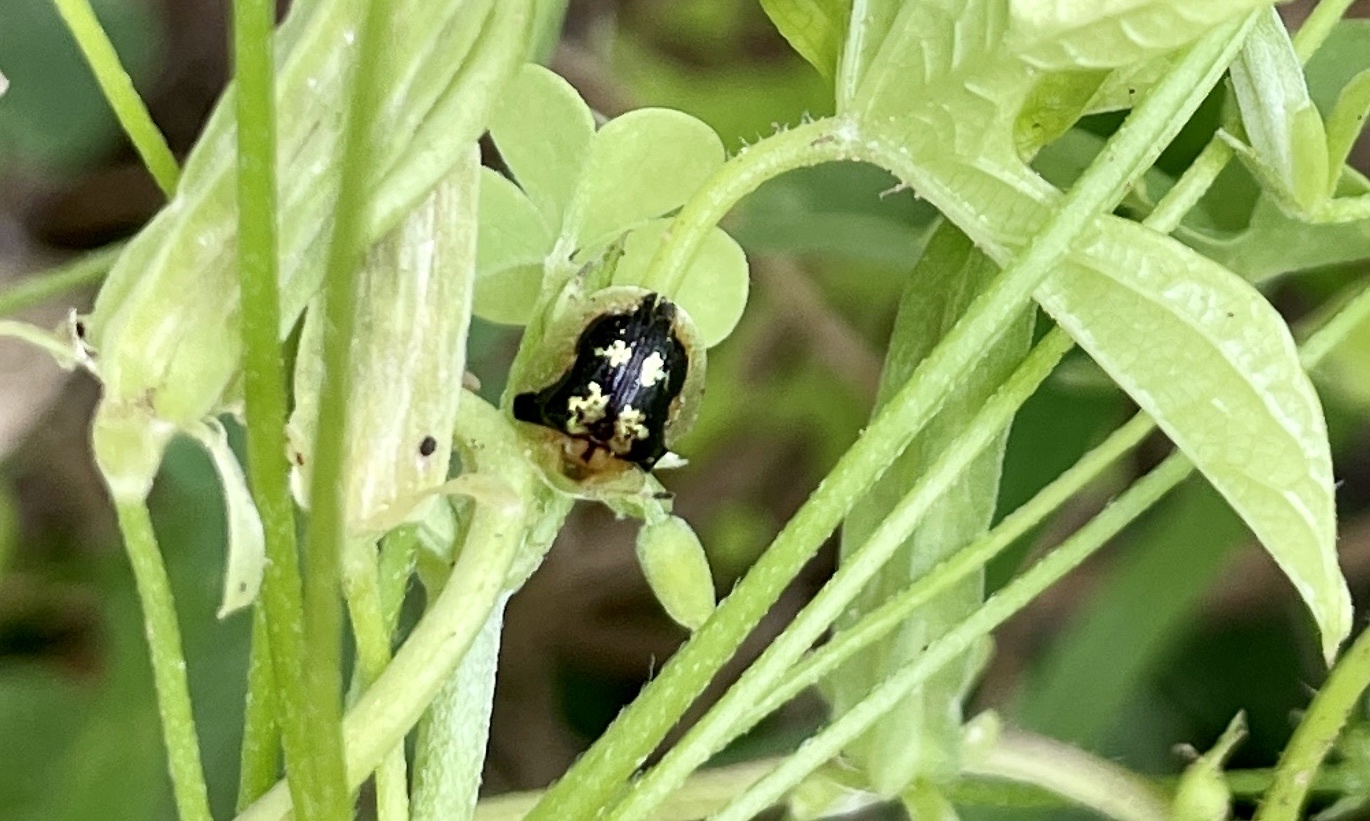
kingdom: Animalia
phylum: Arthropoda
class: Insecta
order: Coleoptera
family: Chrysomelidae
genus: Deloyala
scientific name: Deloyala guttata
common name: Mottled tortoise beetle
